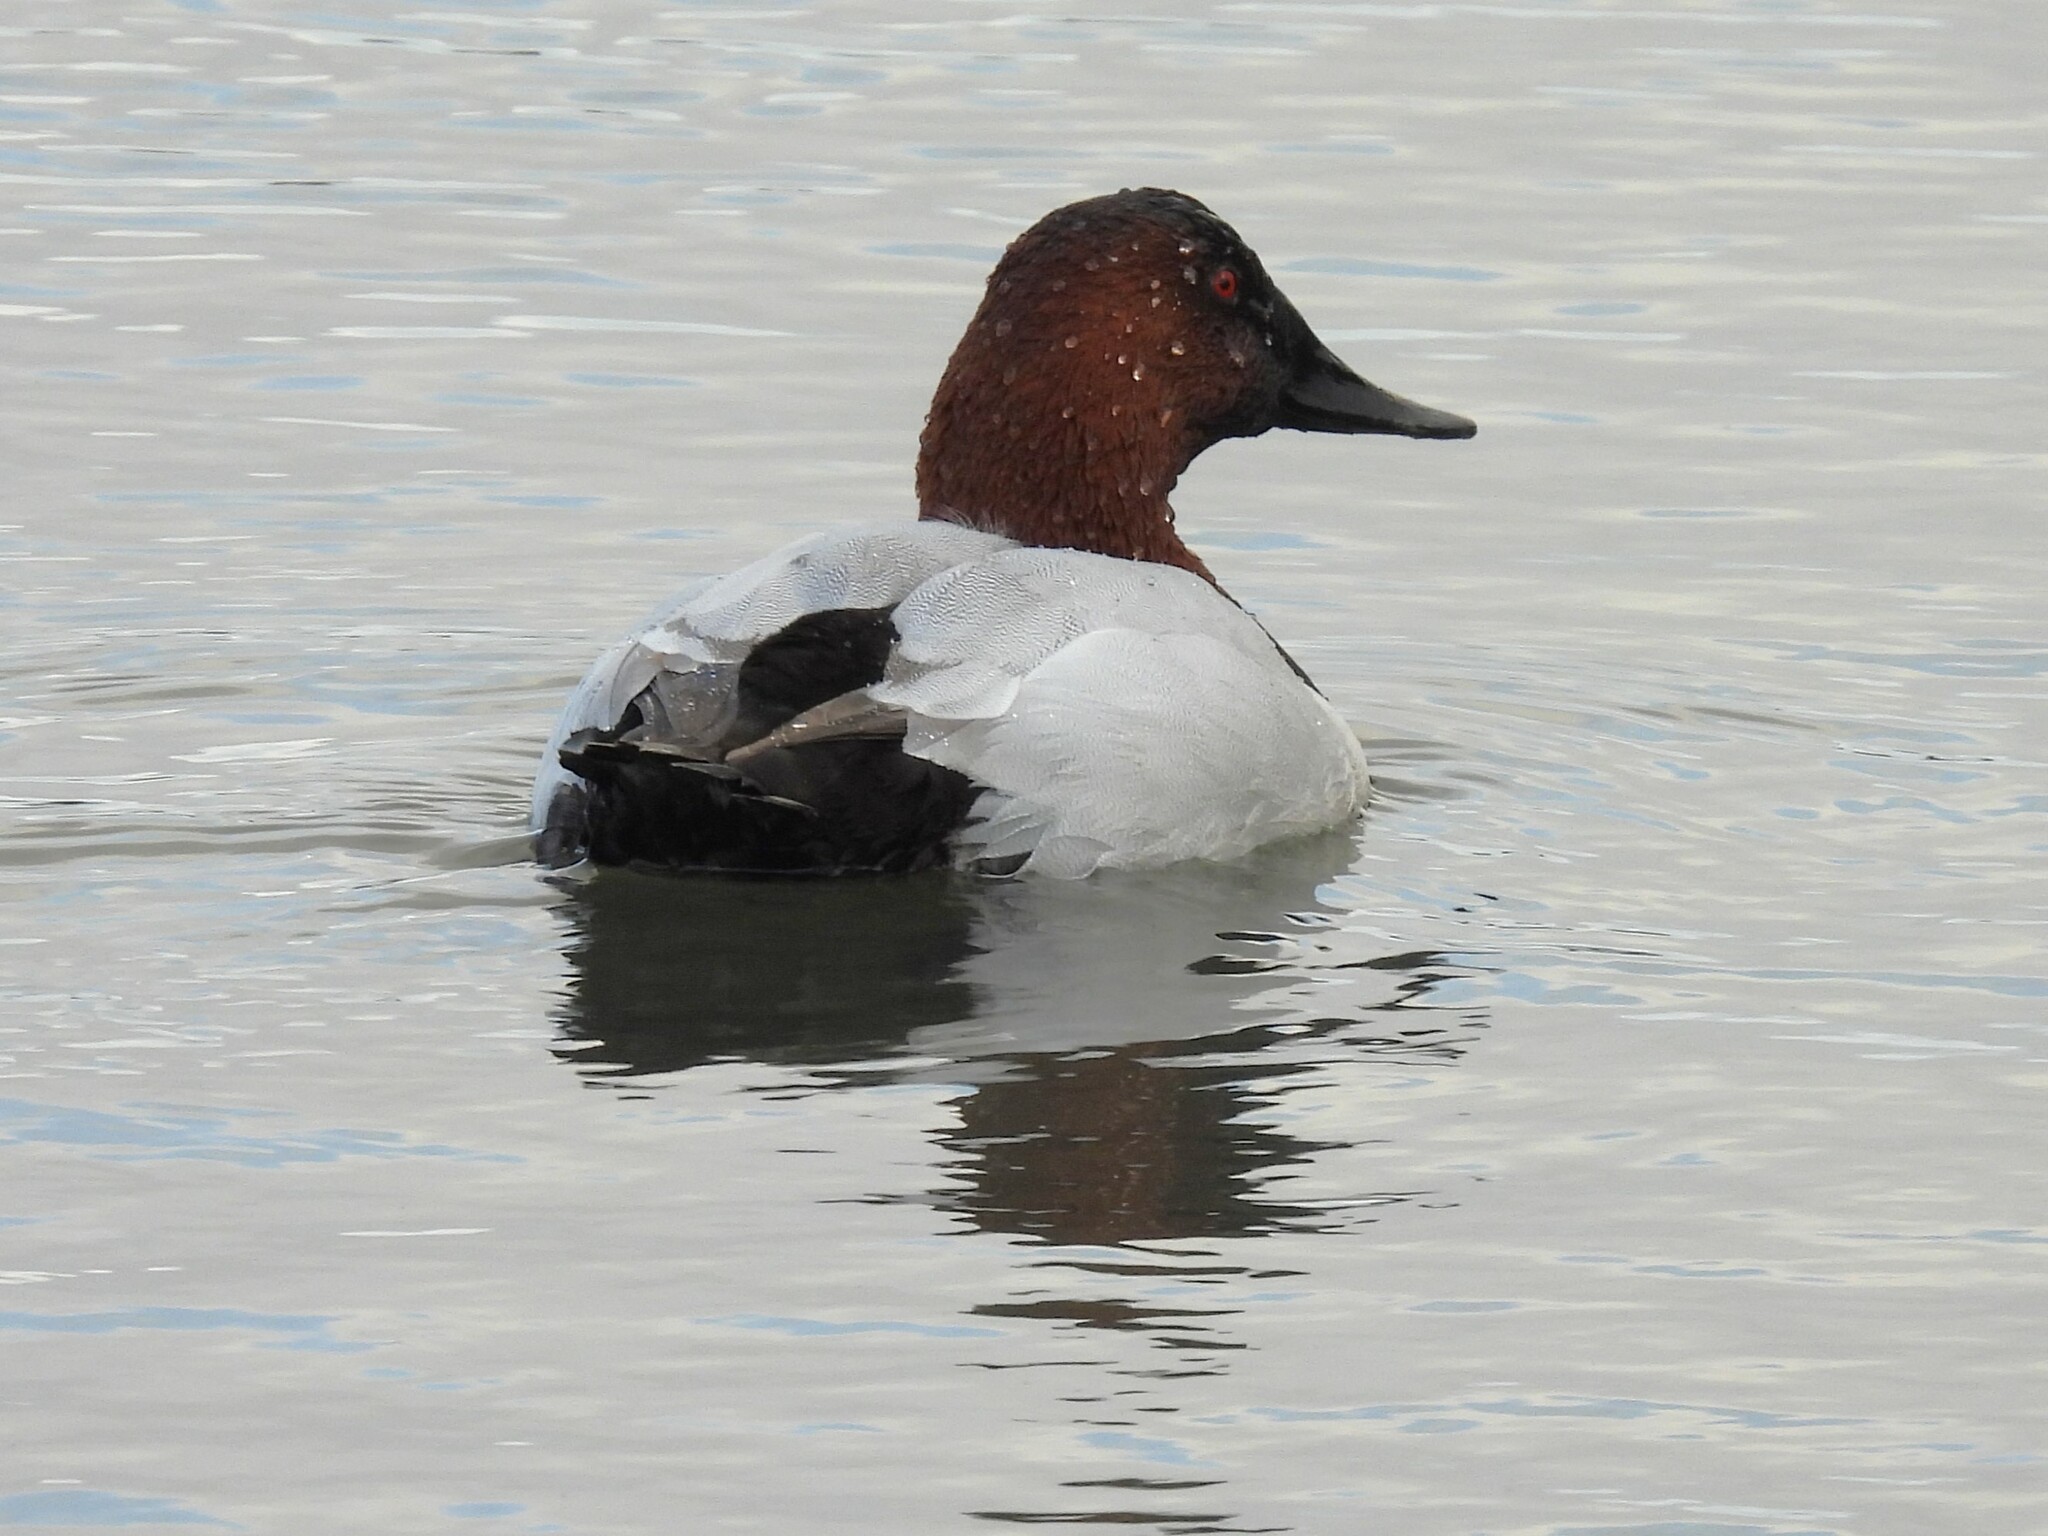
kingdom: Animalia
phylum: Chordata
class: Aves
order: Anseriformes
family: Anatidae
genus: Aythya
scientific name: Aythya valisineria
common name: Canvasback
